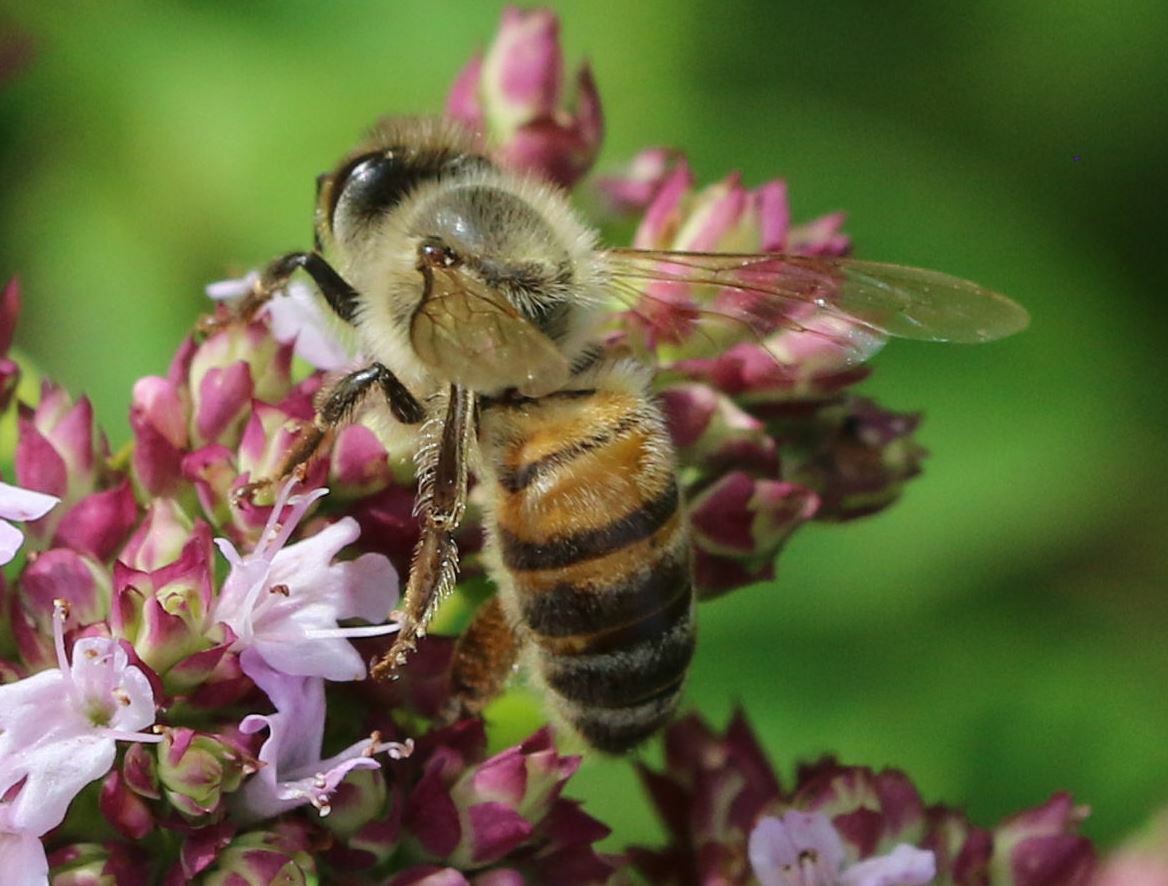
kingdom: Animalia
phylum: Arthropoda
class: Insecta
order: Hymenoptera
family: Apidae
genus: Apis
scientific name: Apis mellifera
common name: Honey bee
